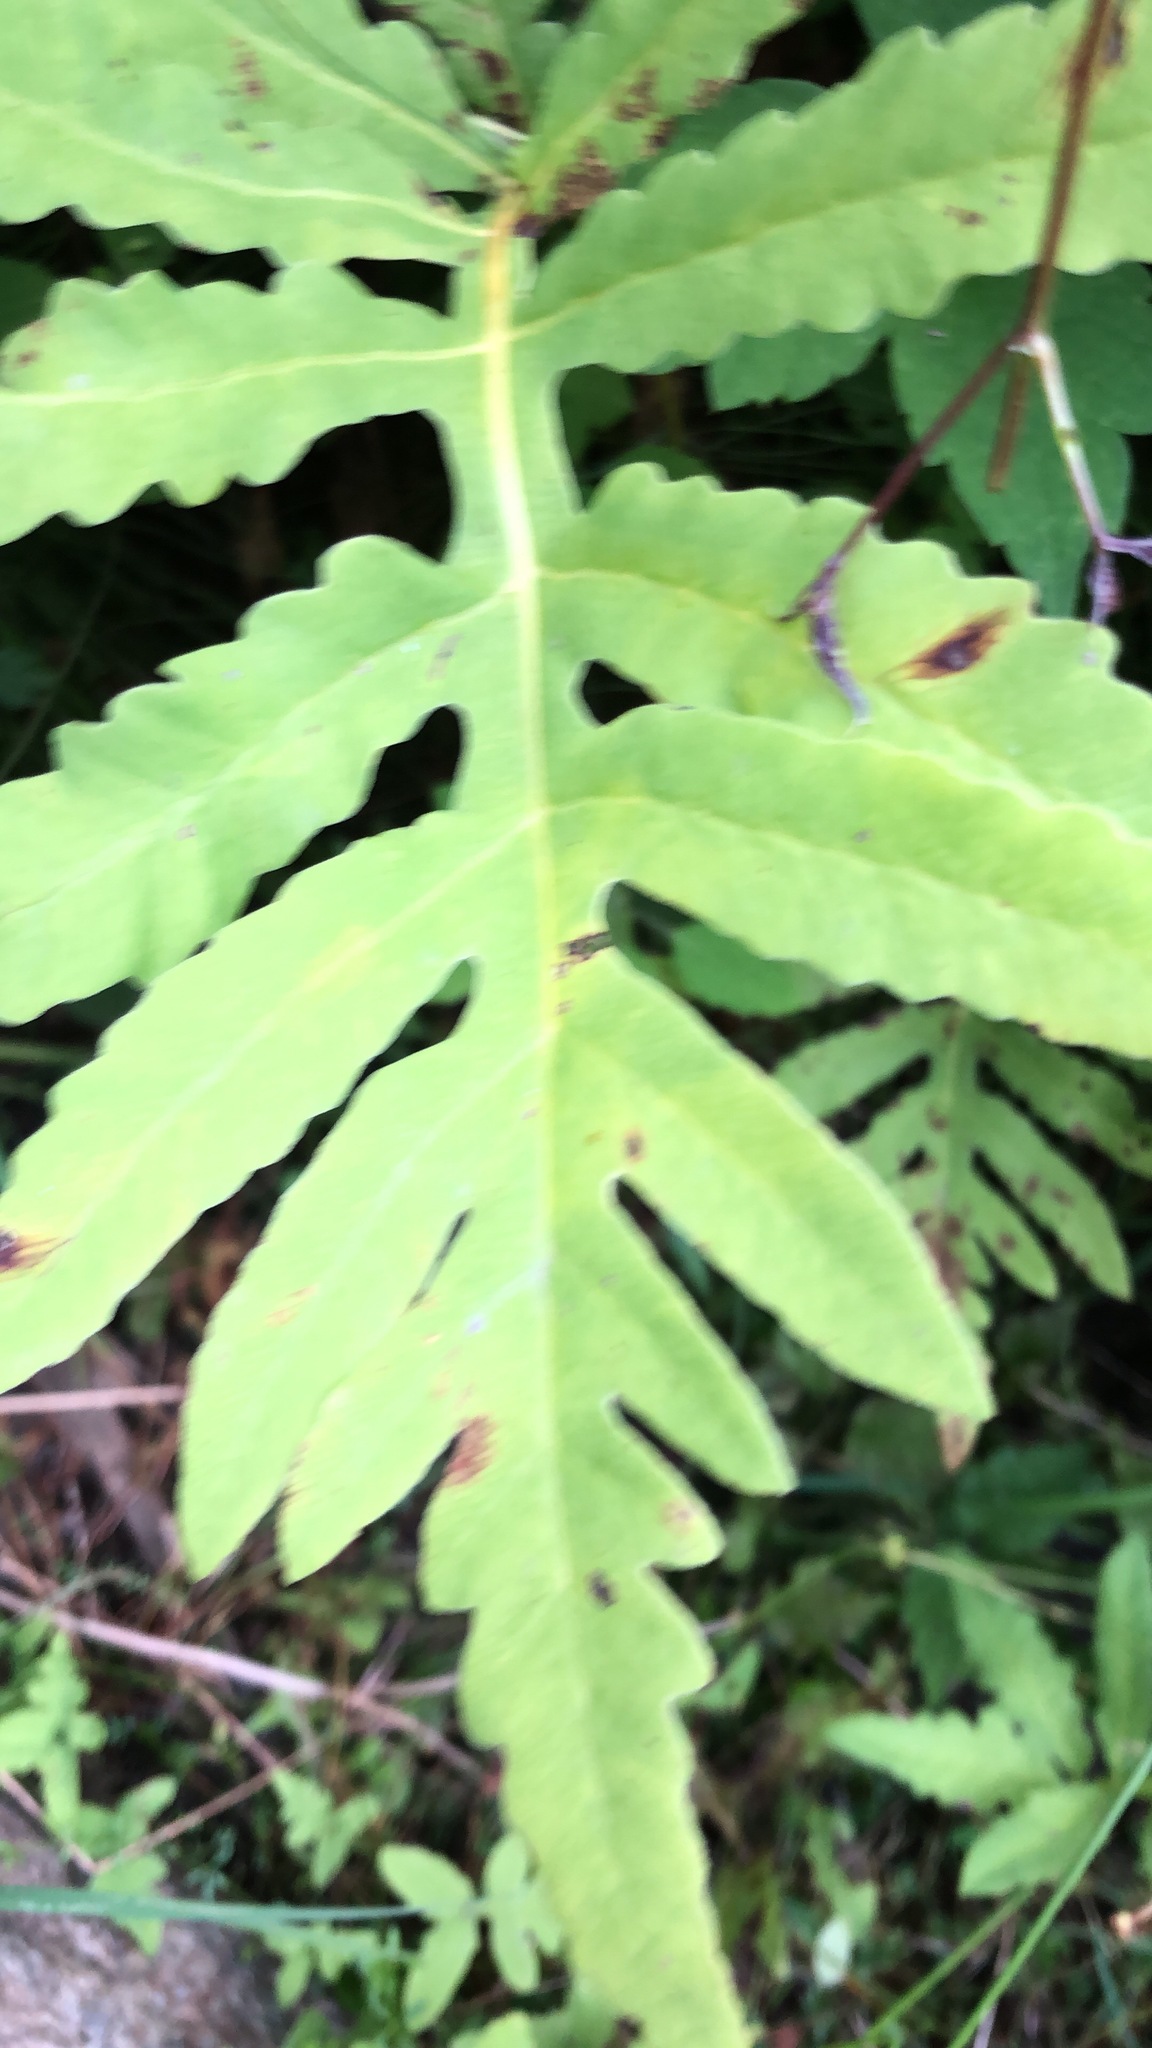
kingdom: Plantae
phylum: Tracheophyta
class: Polypodiopsida
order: Polypodiales
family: Onocleaceae
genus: Onoclea
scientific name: Onoclea sensibilis
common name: Sensitive fern
